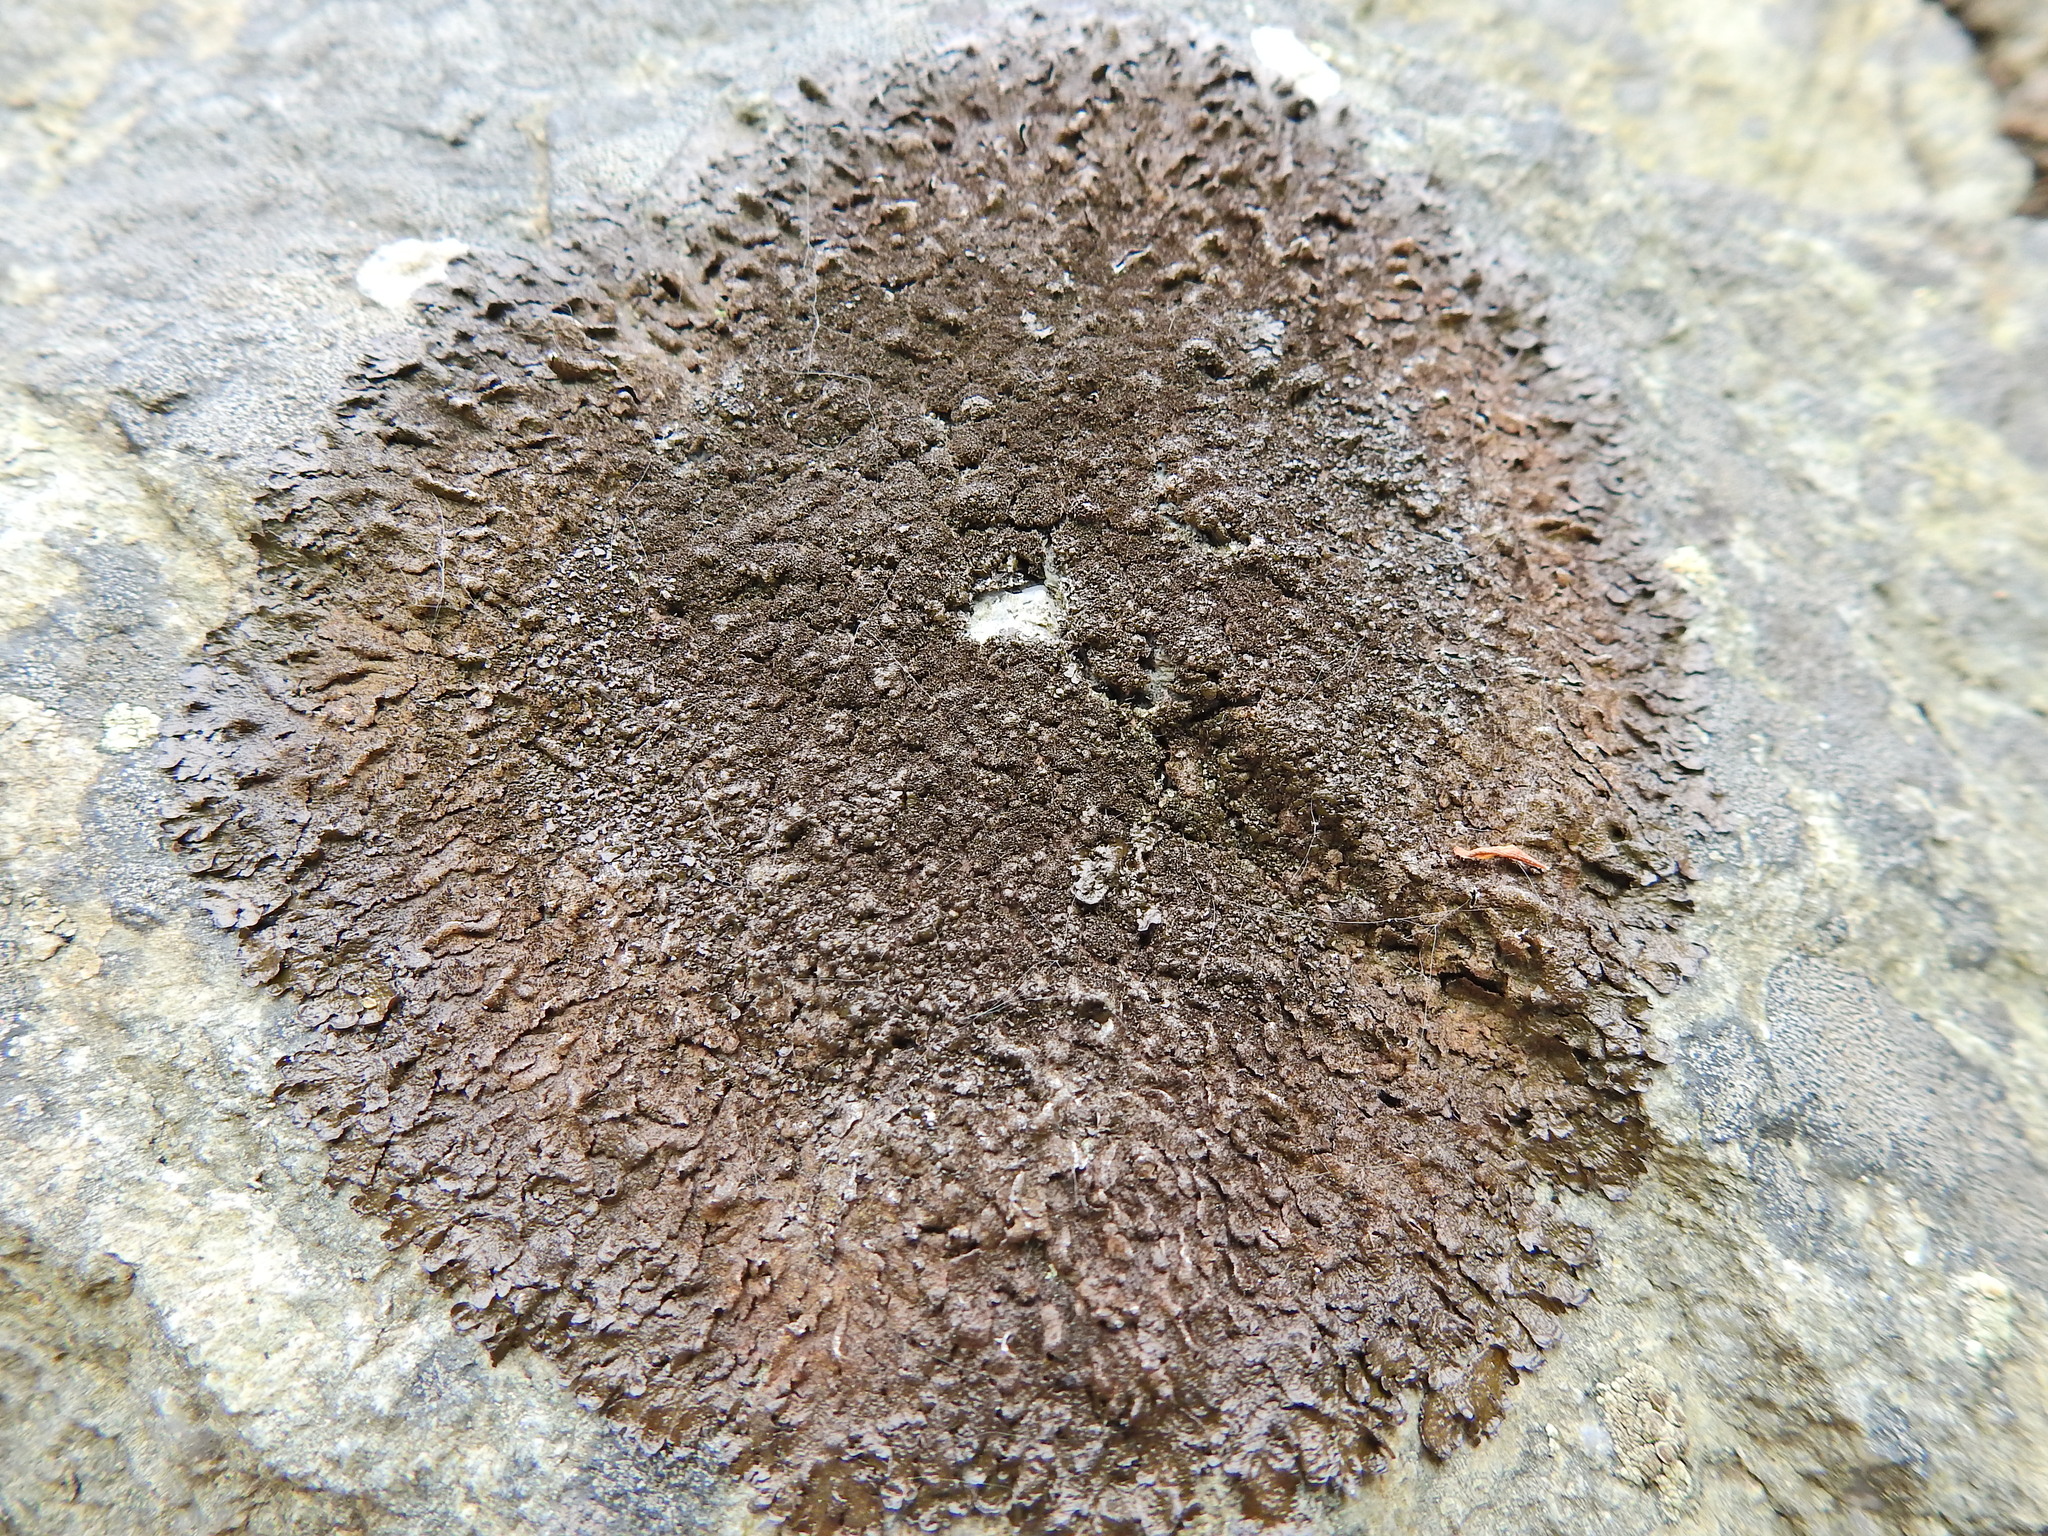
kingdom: Fungi
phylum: Ascomycota
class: Lecanoromycetes
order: Lecanorales
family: Parmeliaceae
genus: Melanelixia
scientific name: Melanelixia fuliginosa
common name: Shiny camouflage lichen
